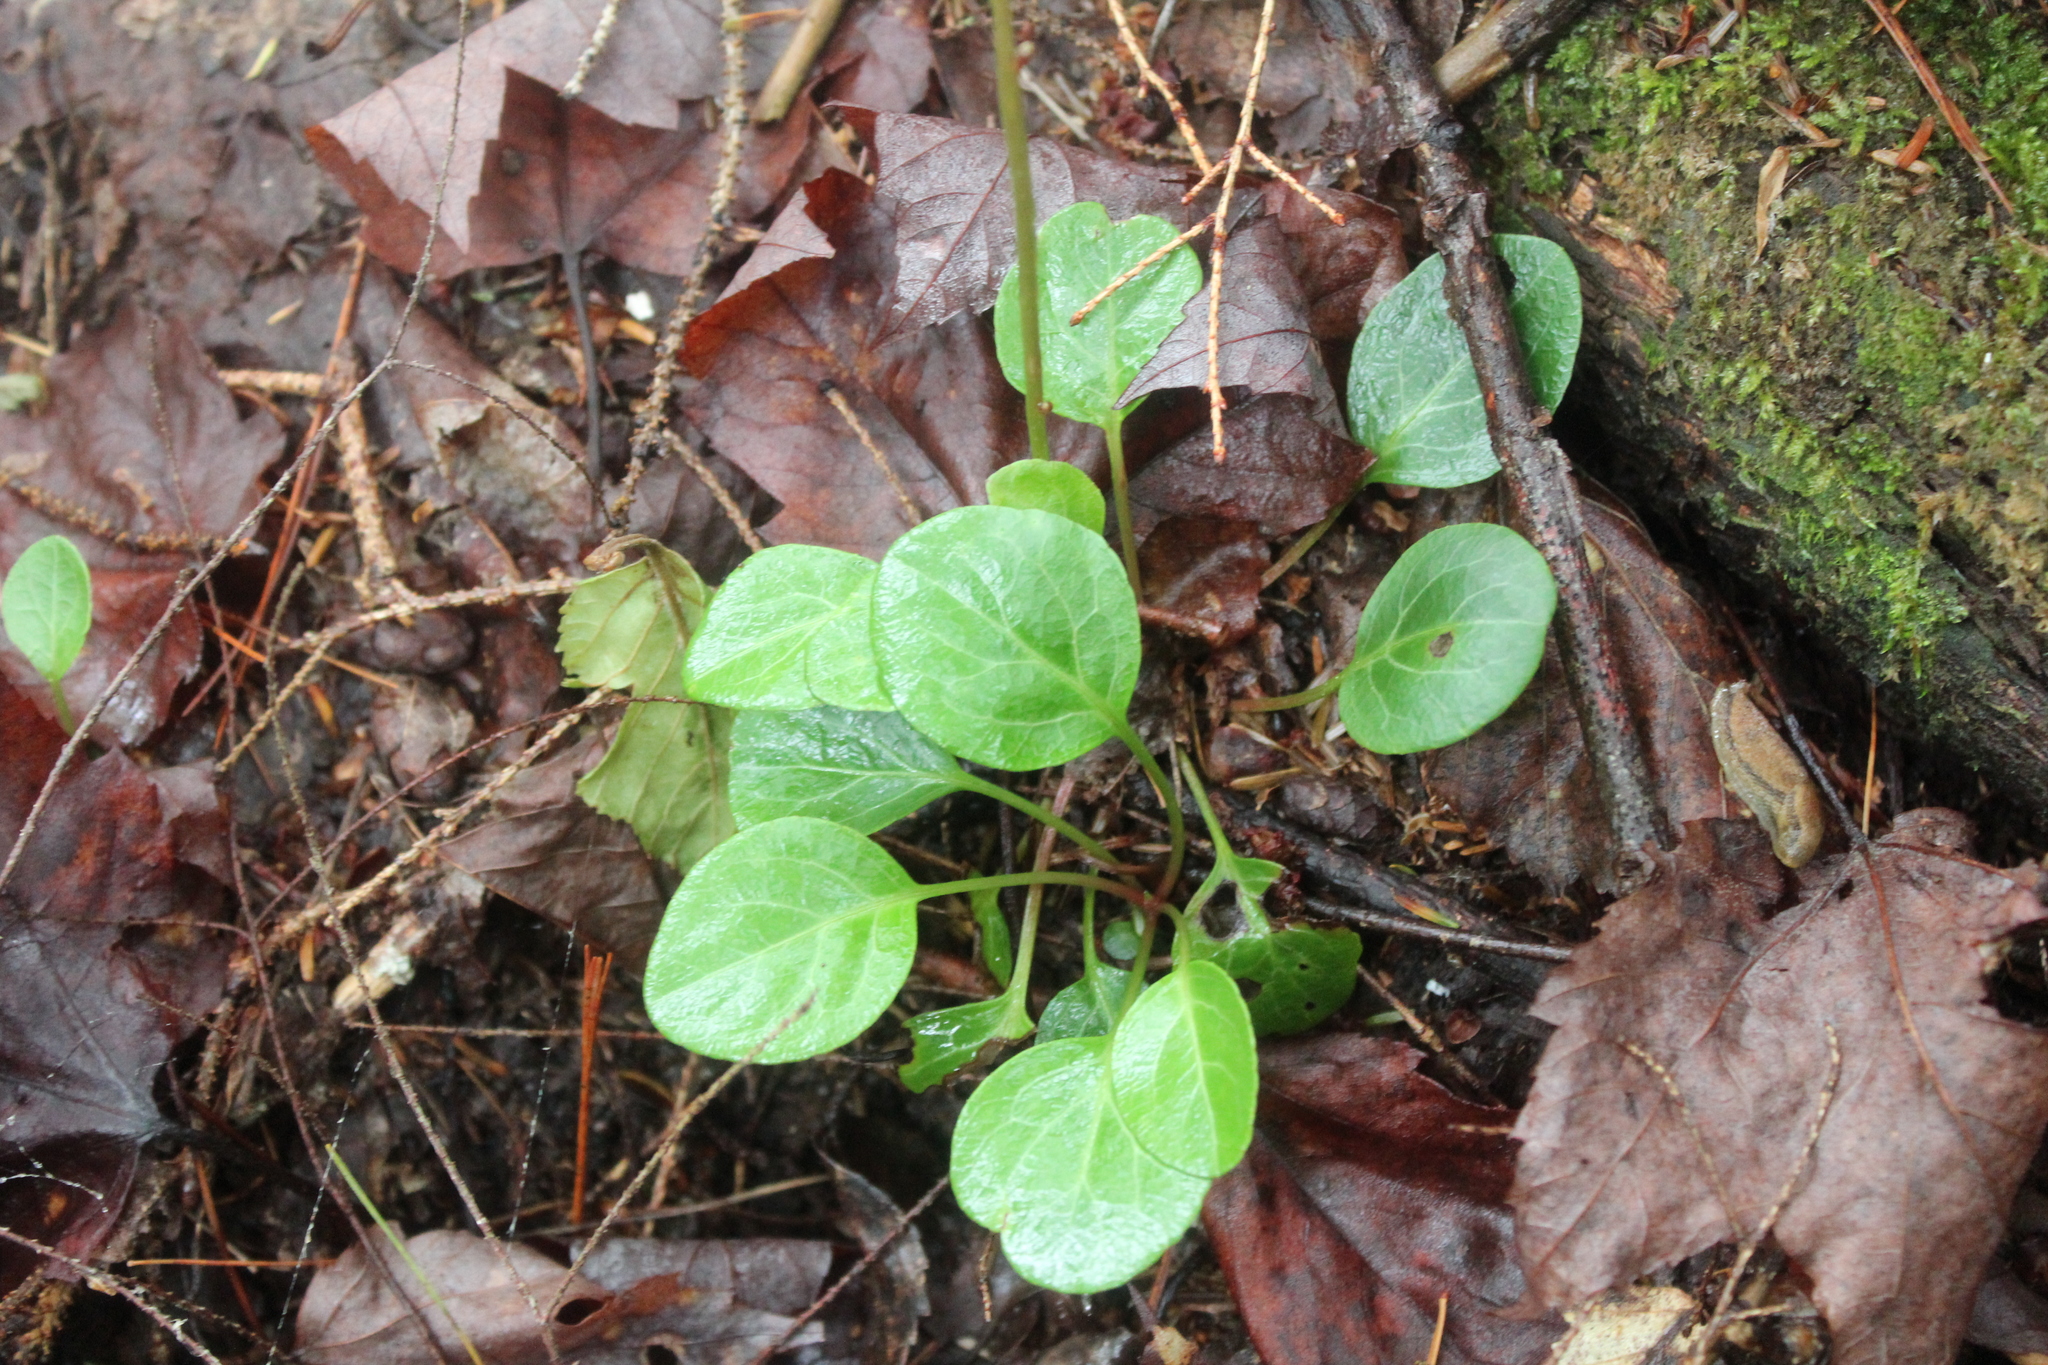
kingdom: Plantae
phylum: Tracheophyta
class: Magnoliopsida
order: Ericales
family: Ericaceae
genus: Pyrola
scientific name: Pyrola chlorantha
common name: Green wintergreen
